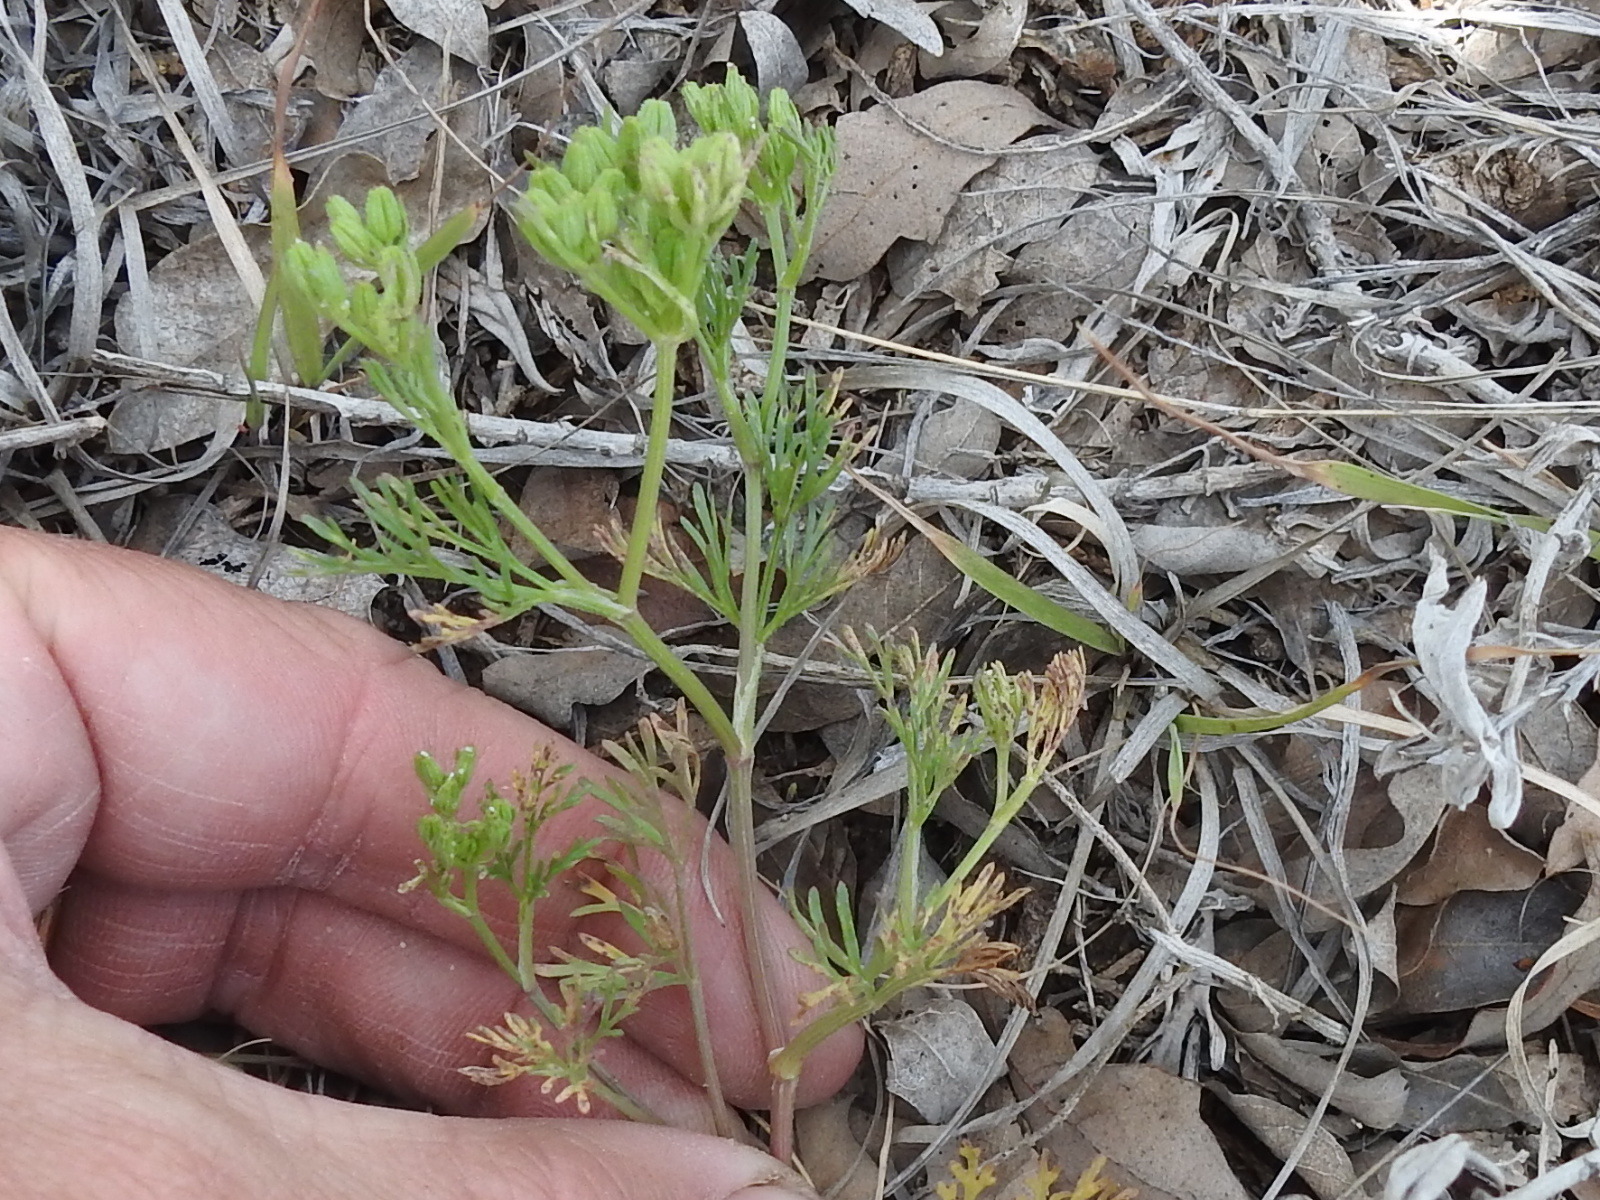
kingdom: Plantae
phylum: Tracheophyta
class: Magnoliopsida
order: Apiales
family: Apiaceae
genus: Ammoselinum
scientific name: Ammoselinum popei
